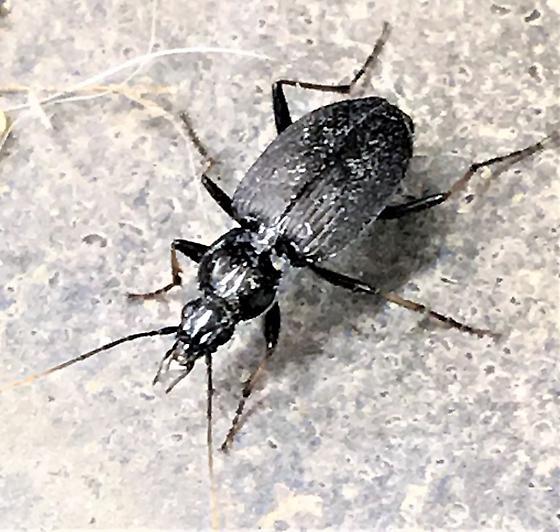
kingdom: Animalia
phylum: Arthropoda
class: Insecta
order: Coleoptera
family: Carabidae
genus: Agonum
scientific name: Agonum albicrus
